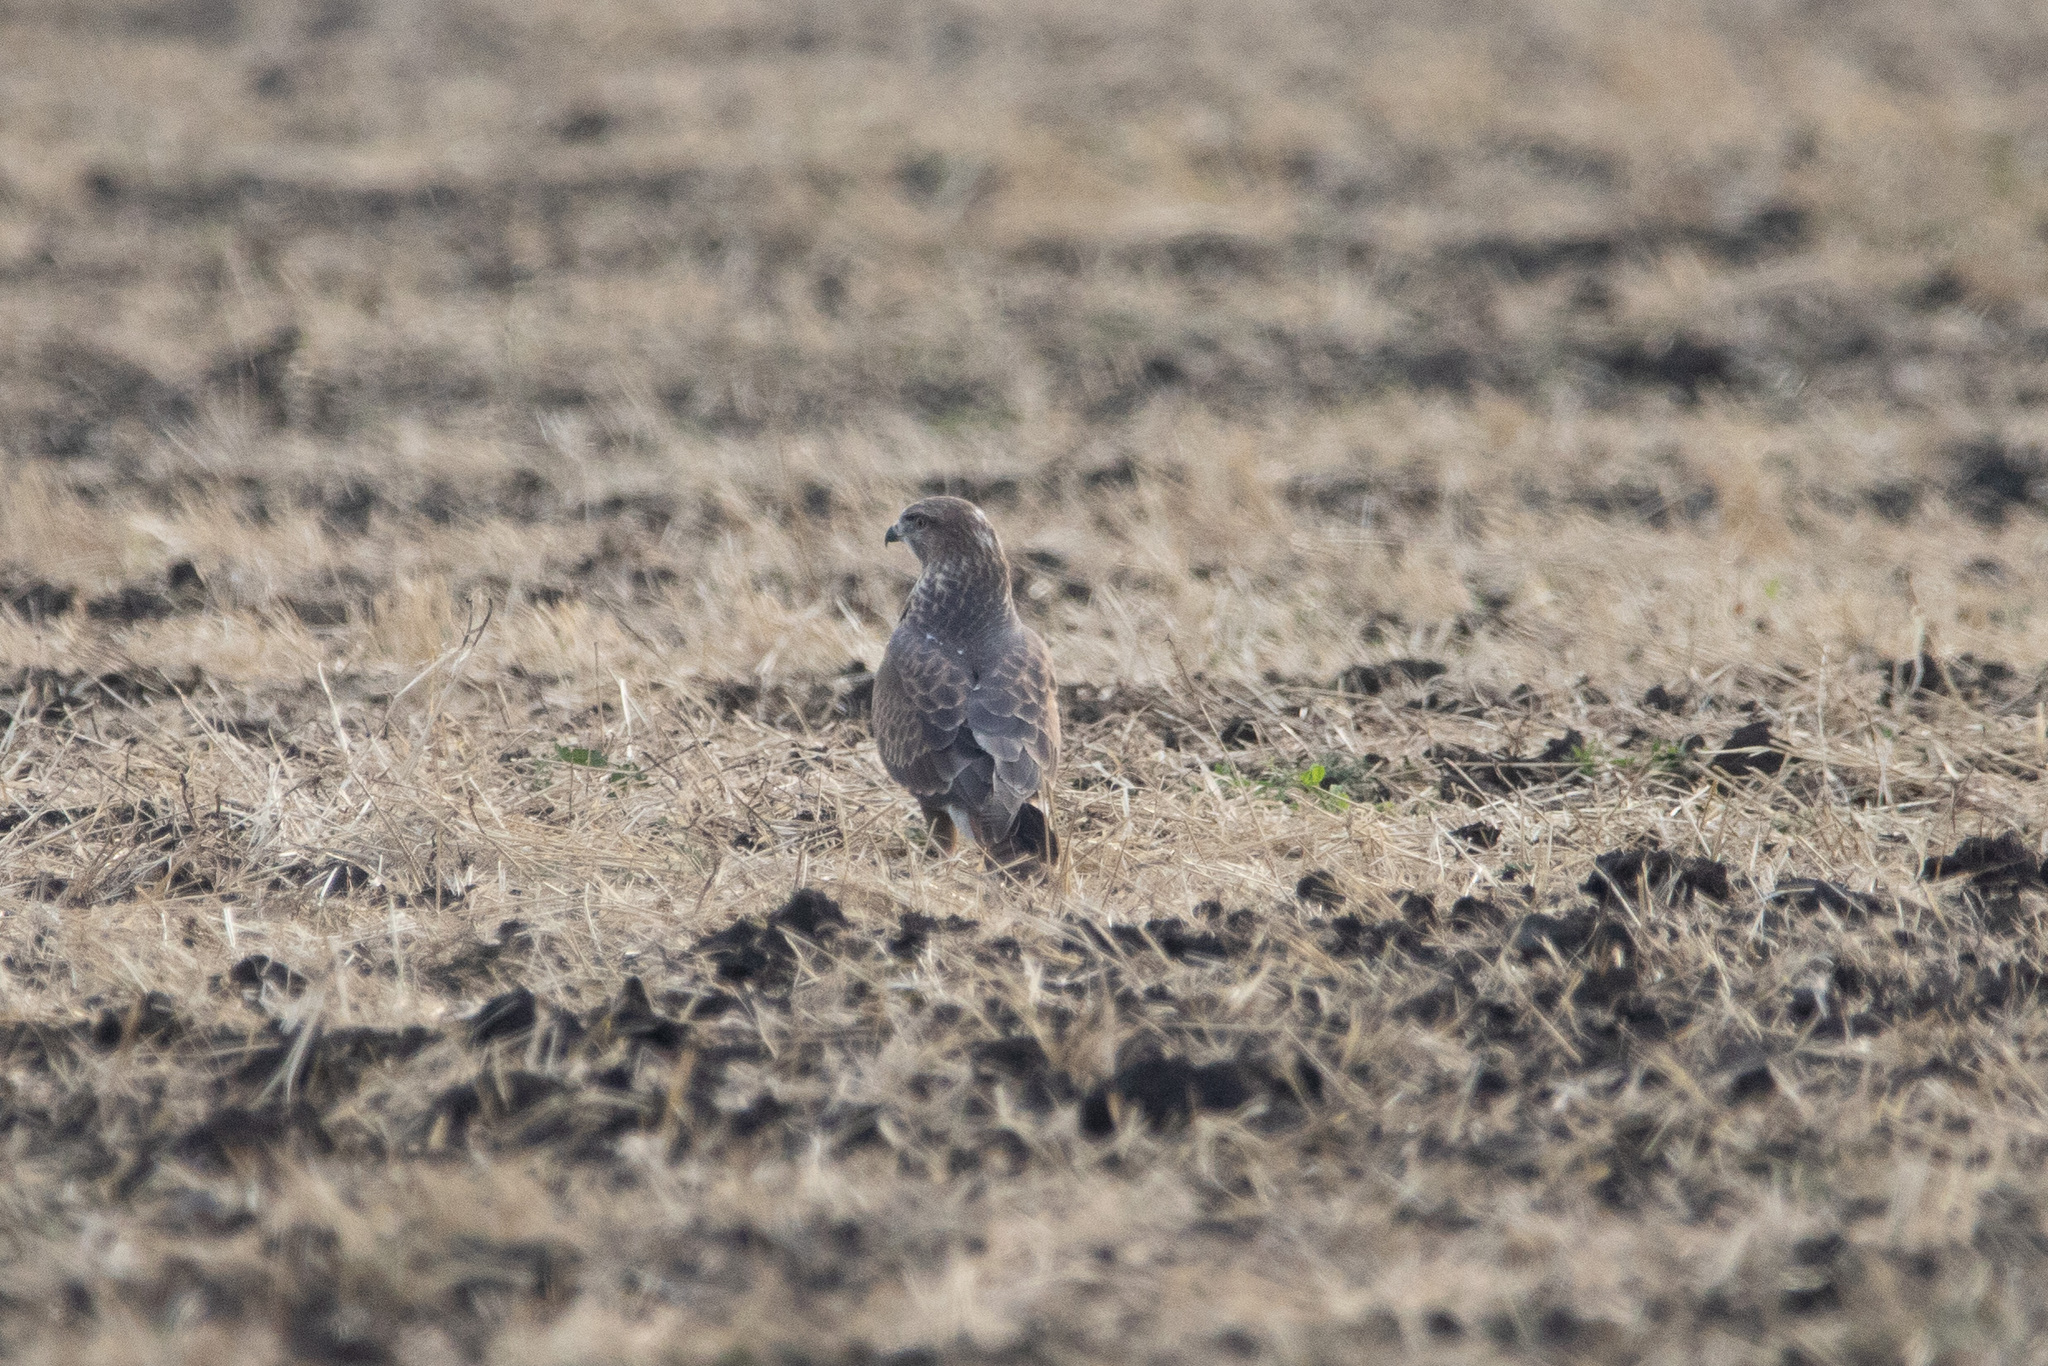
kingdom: Animalia
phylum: Chordata
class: Aves
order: Accipitriformes
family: Accipitridae
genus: Buteo
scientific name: Buteo buteo
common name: Common buzzard
